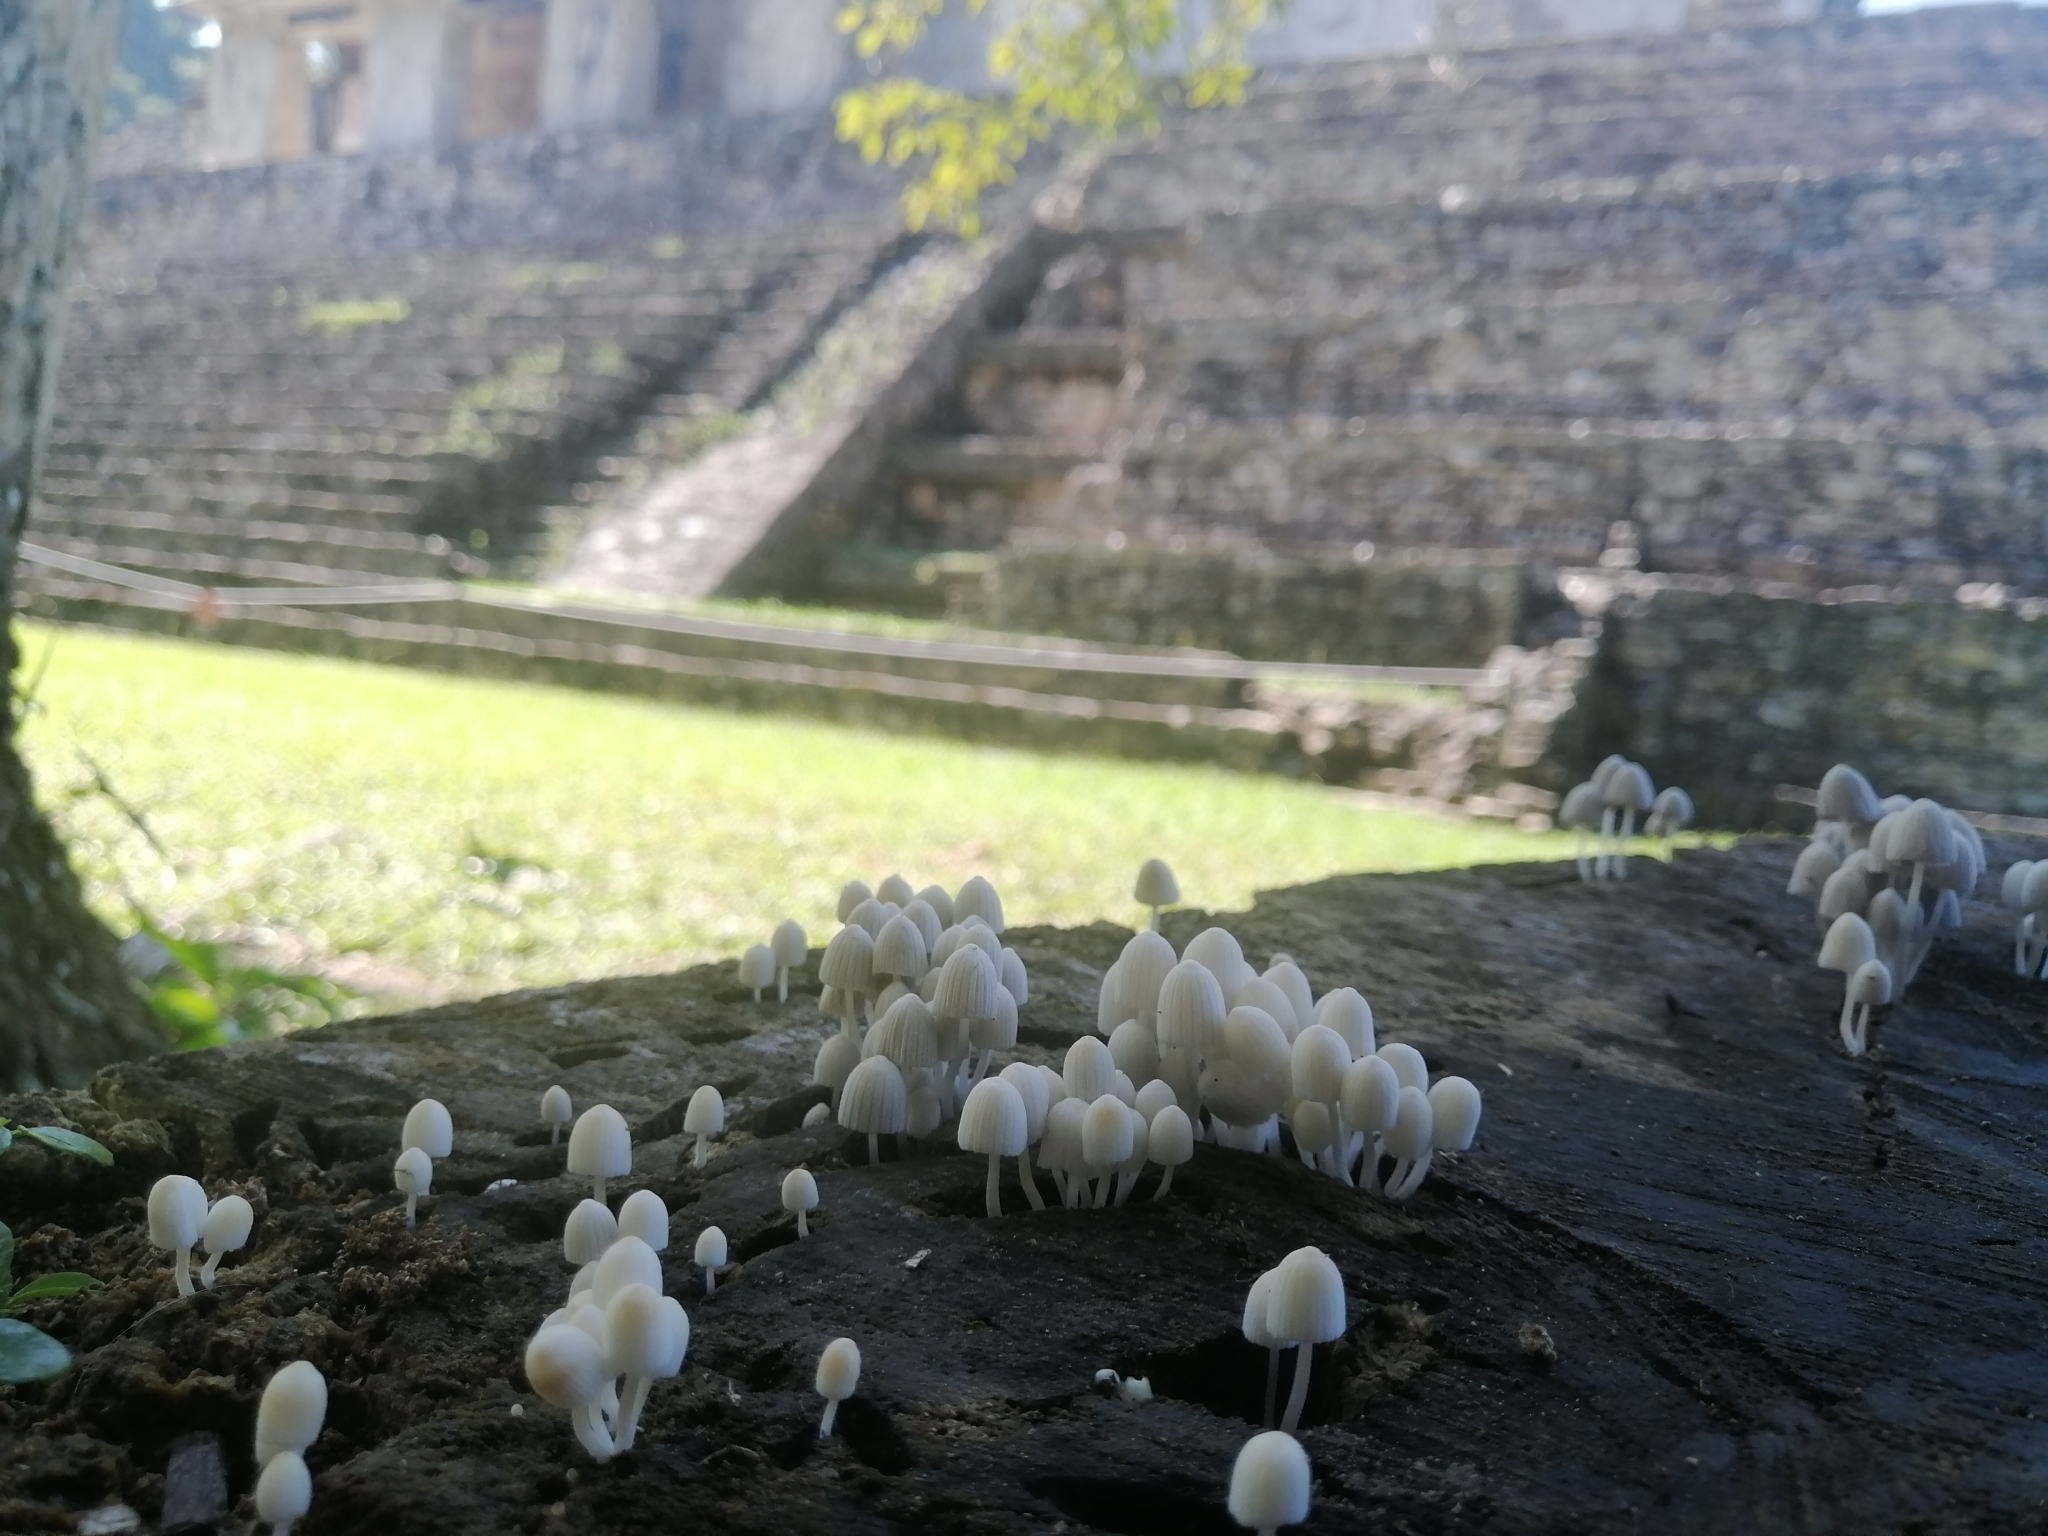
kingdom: Fungi
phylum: Basidiomycota
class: Agaricomycetes
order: Agaricales
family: Psathyrellaceae
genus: Coprinellus
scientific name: Coprinellus disseminatus
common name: Fairies' bonnets
